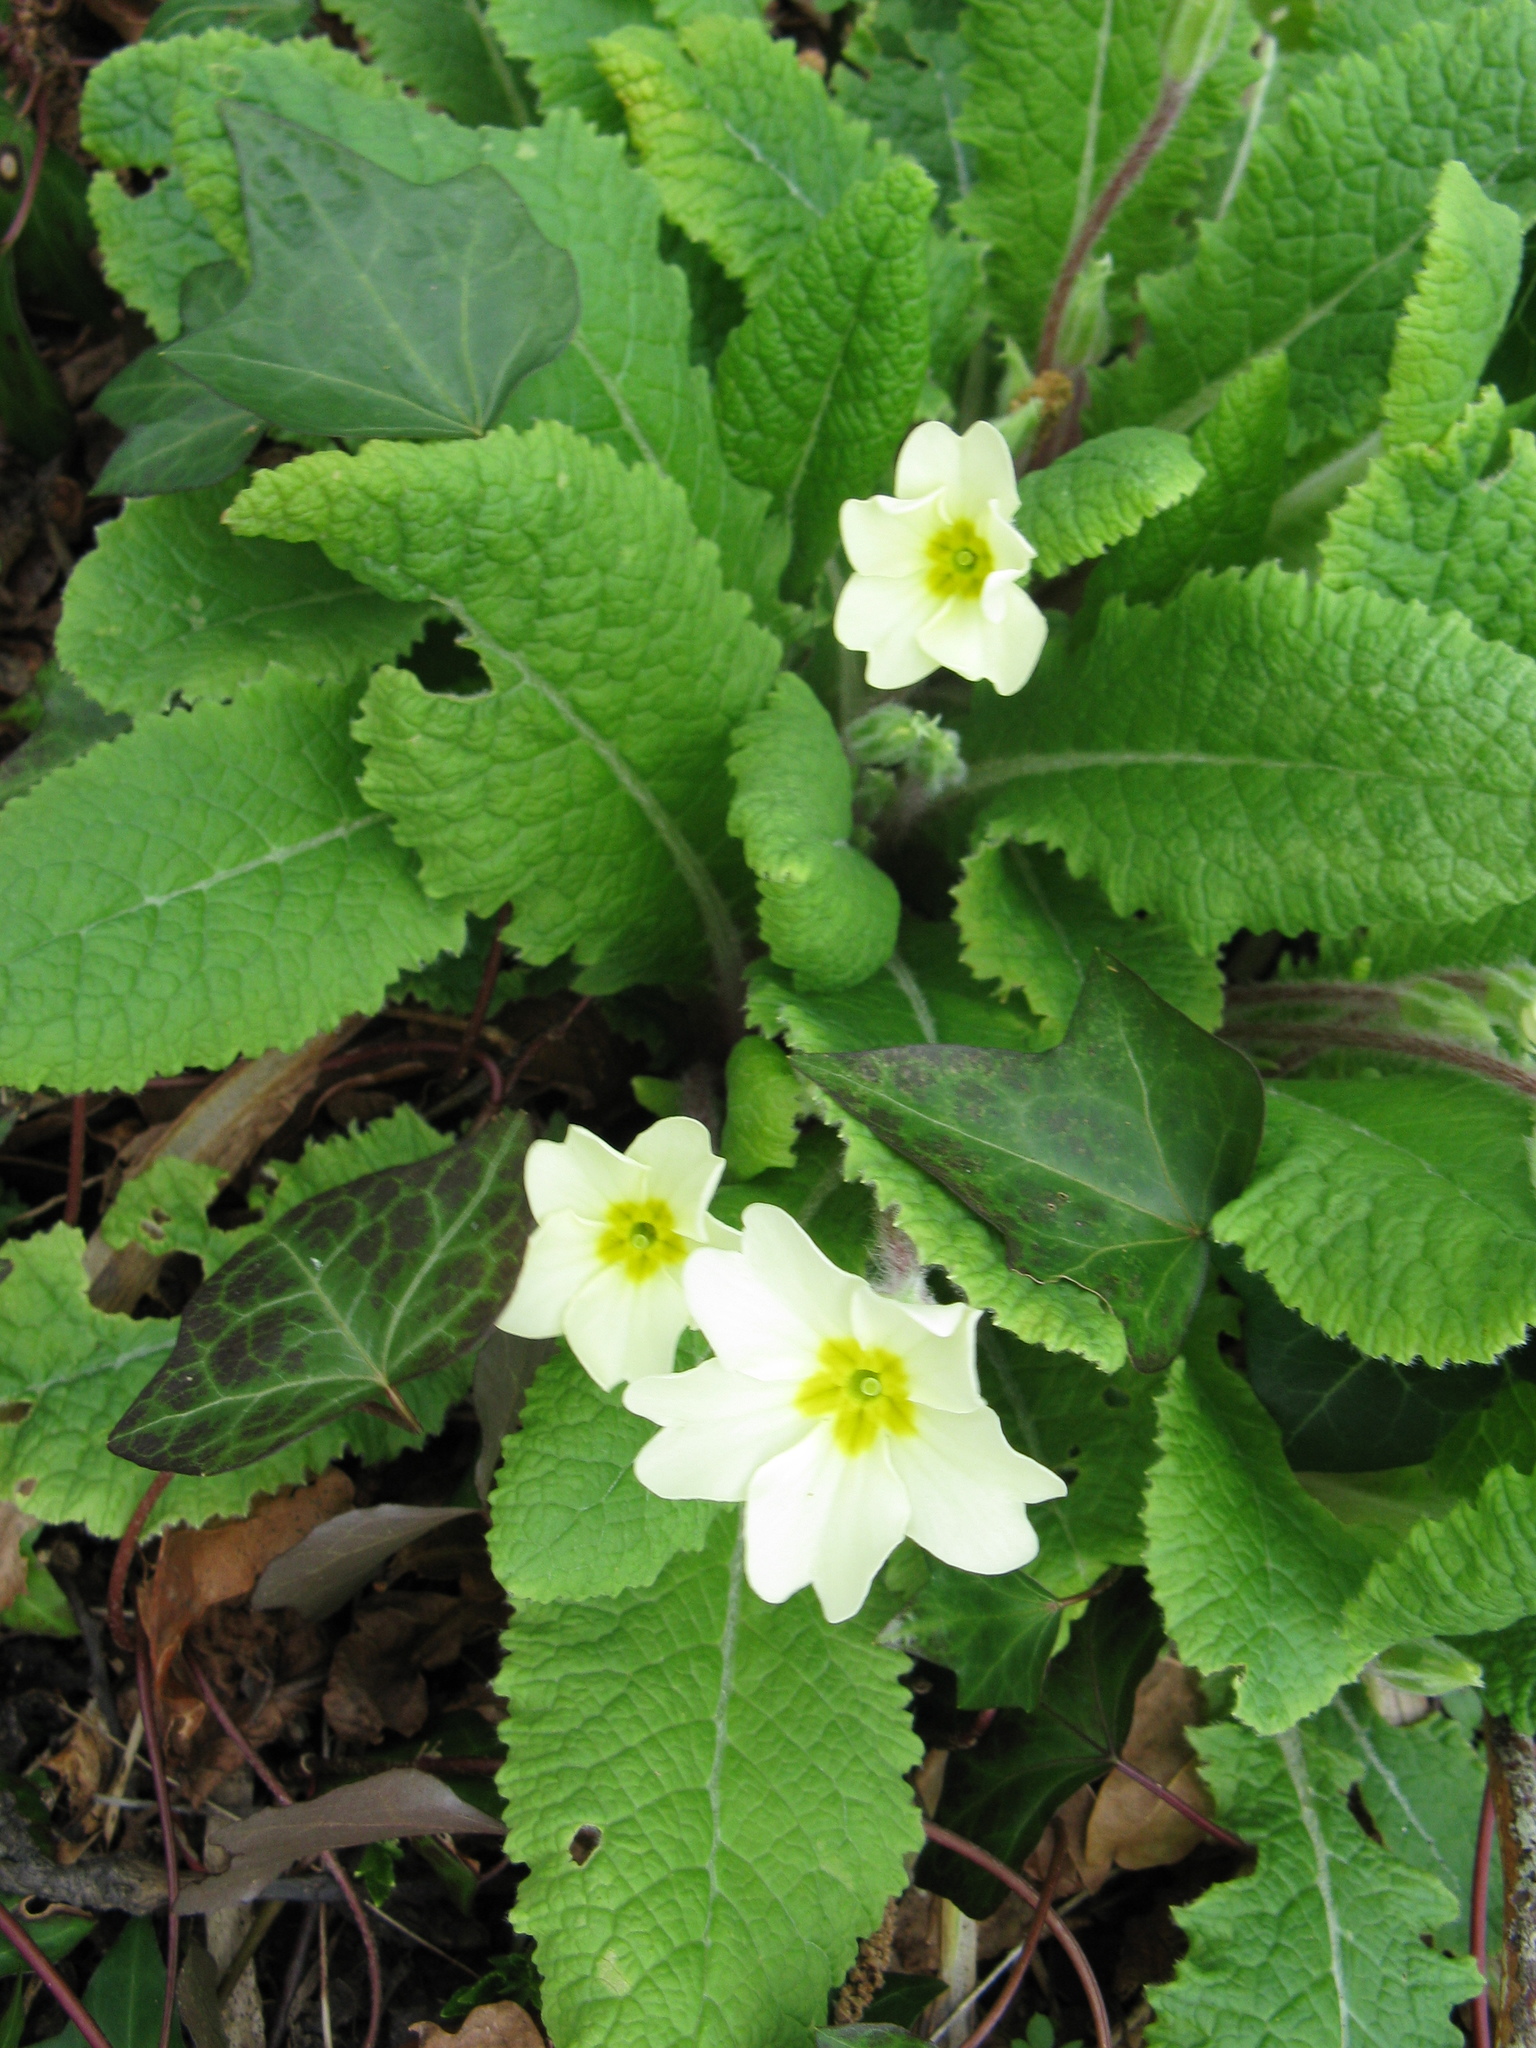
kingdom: Plantae
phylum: Tracheophyta
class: Magnoliopsida
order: Ericales
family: Primulaceae
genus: Primula
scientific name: Primula vulgaris
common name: Primrose
